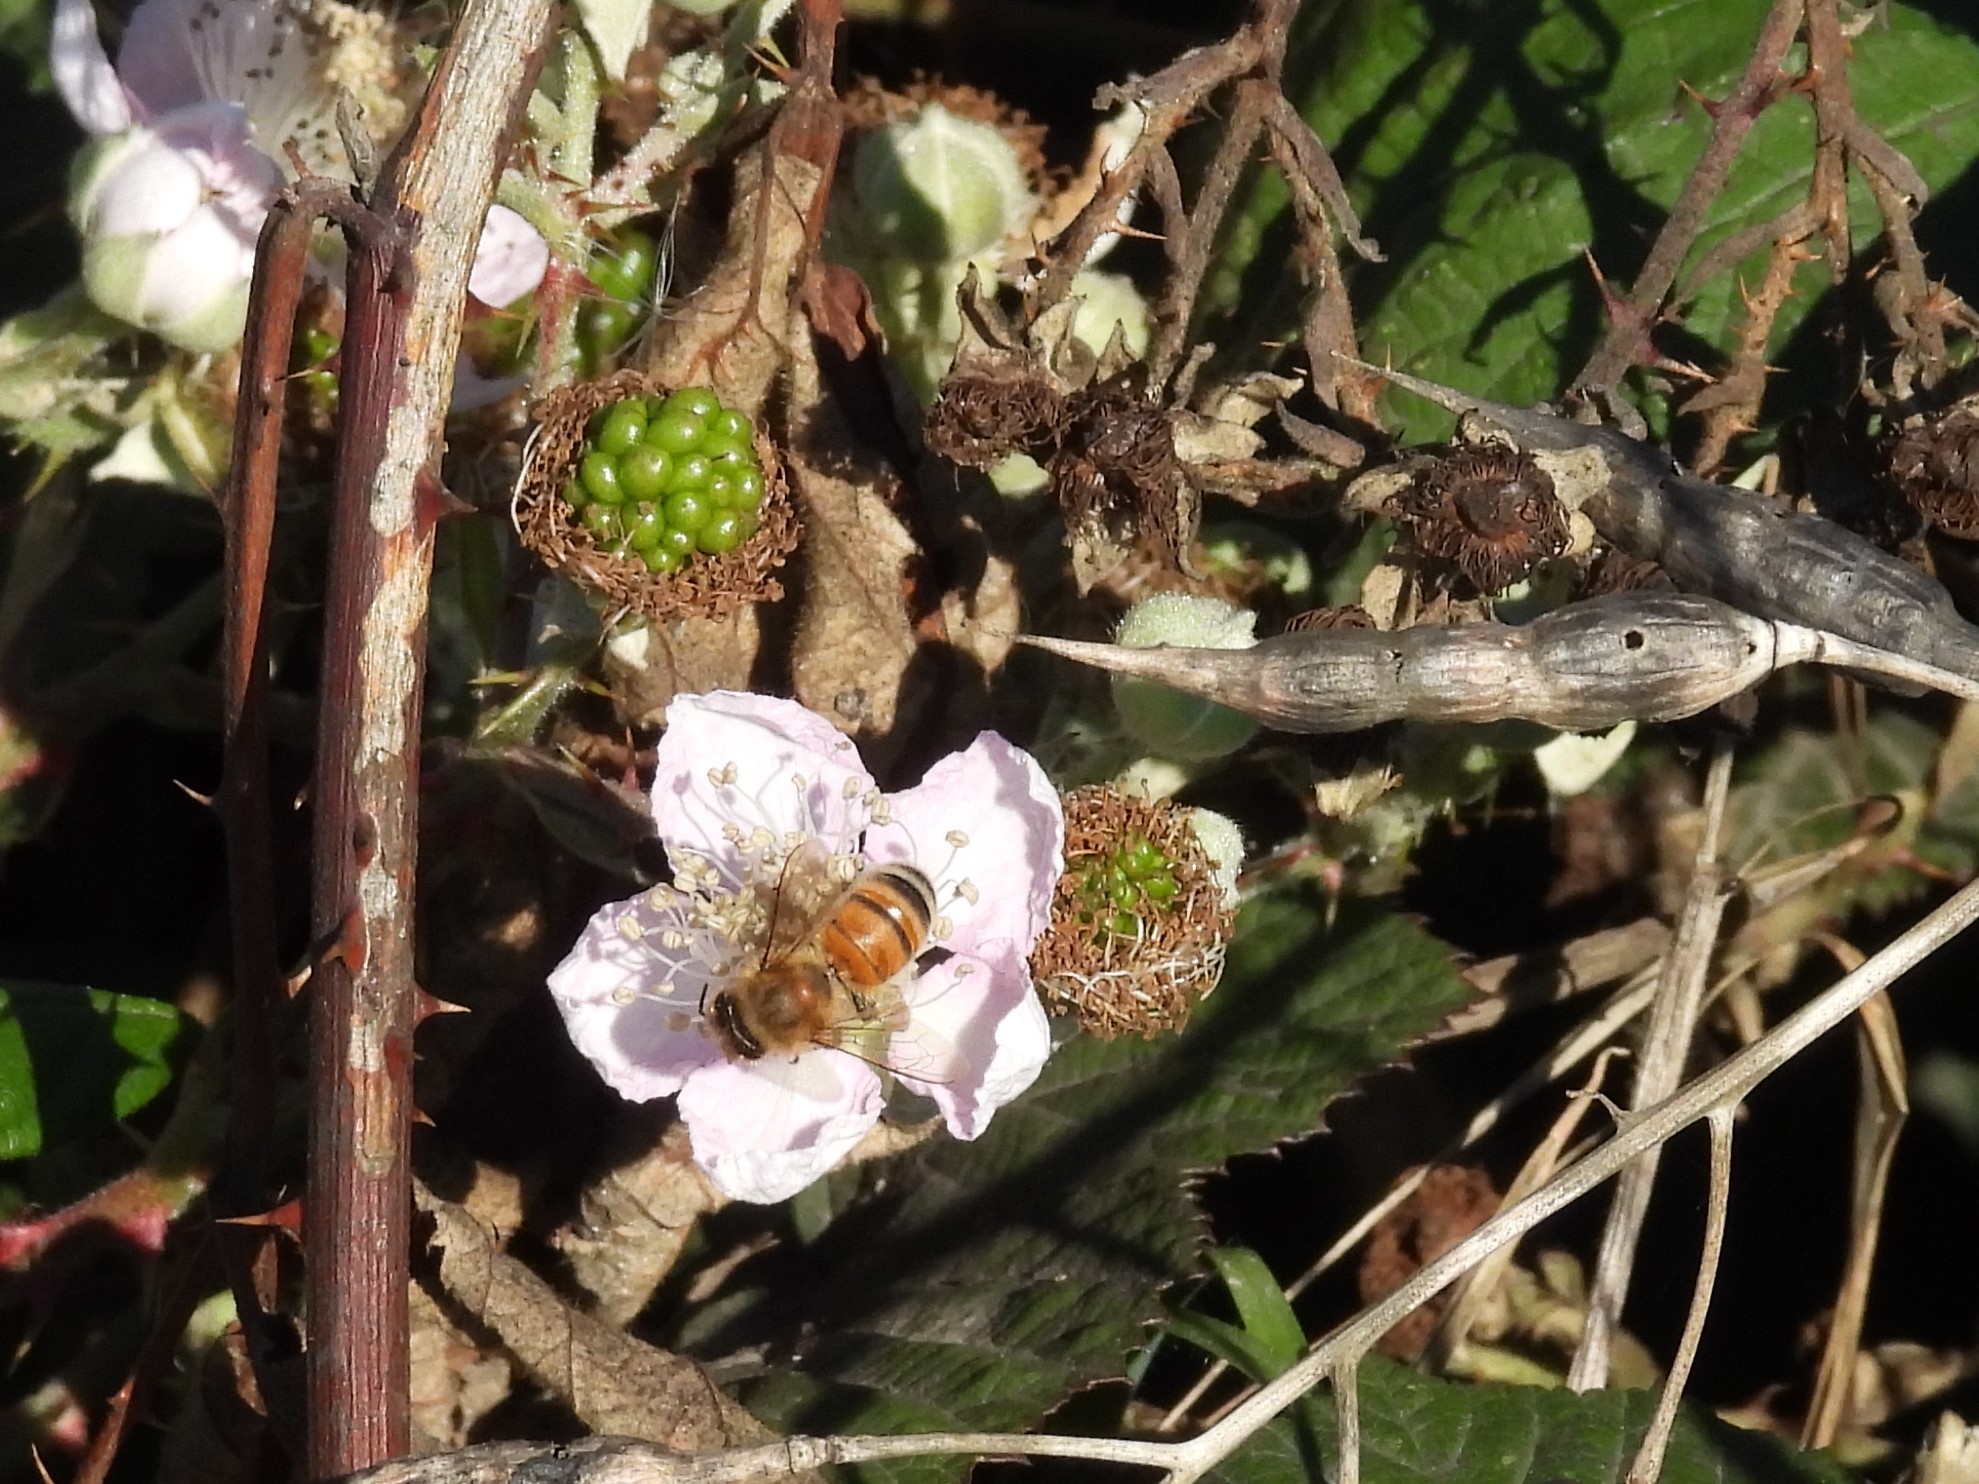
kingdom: Animalia
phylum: Arthropoda
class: Insecta
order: Hymenoptera
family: Apidae
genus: Apis
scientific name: Apis mellifera
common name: Honey bee
